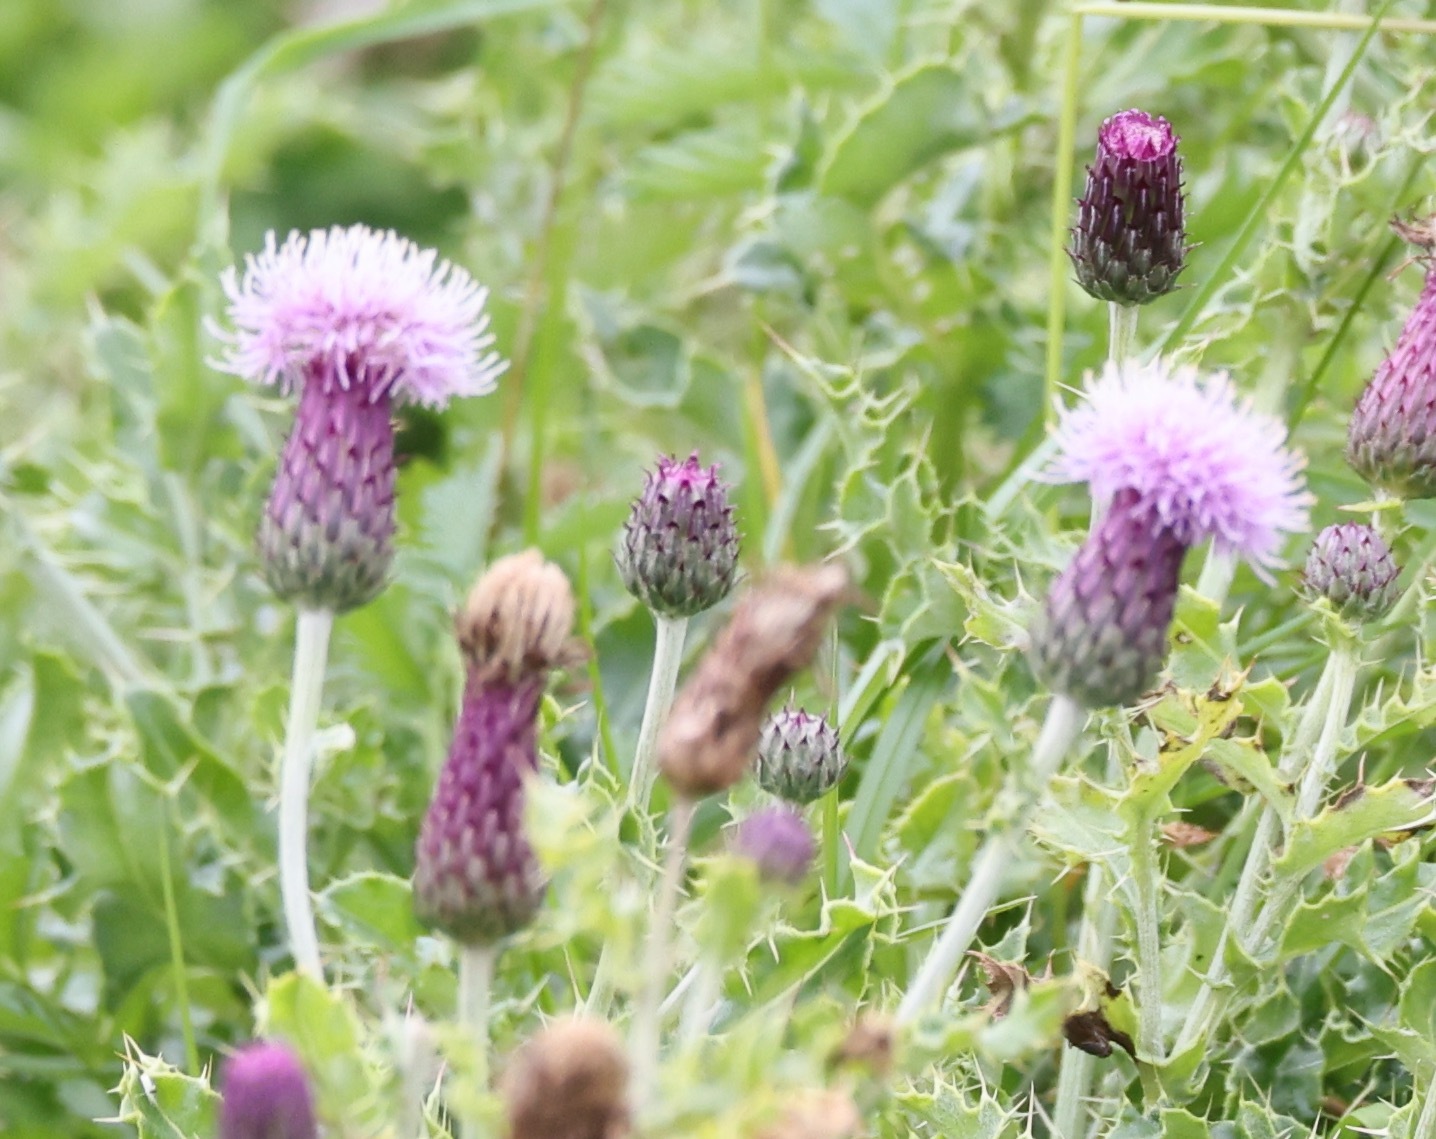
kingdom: Plantae
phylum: Tracheophyta
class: Magnoliopsida
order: Asterales
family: Asteraceae
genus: Cirsium
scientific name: Cirsium arvense
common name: Creeping thistle
